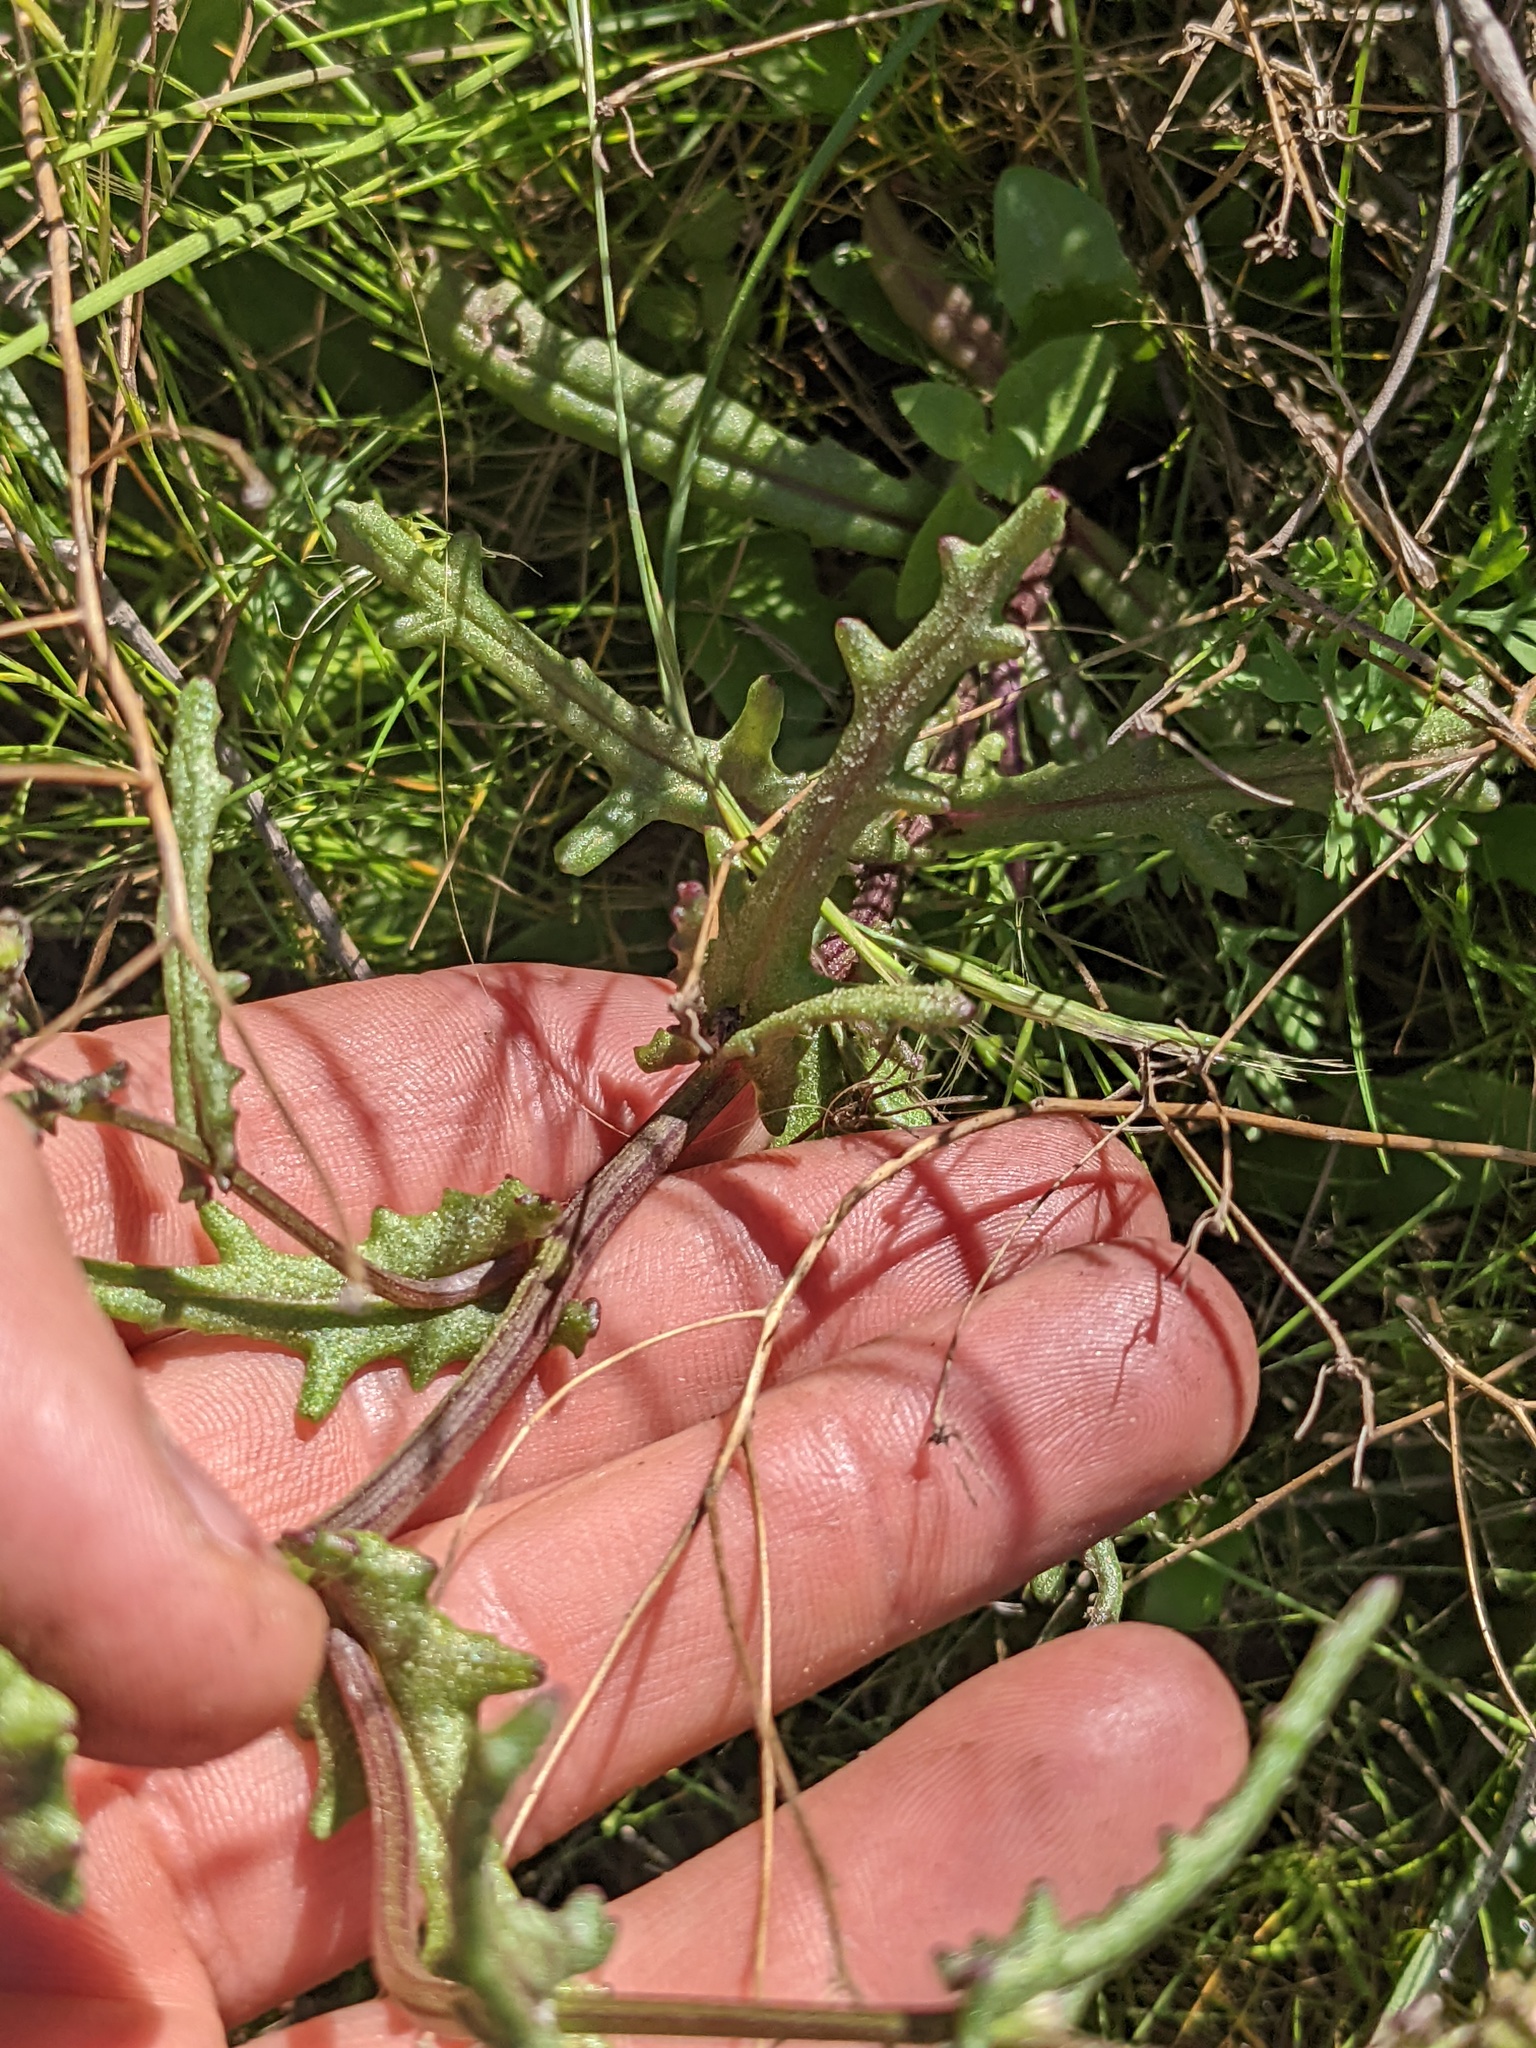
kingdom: Plantae
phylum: Tracheophyta
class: Magnoliopsida
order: Asterales
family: Asteraceae
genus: Senecio
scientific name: Senecio californicus
